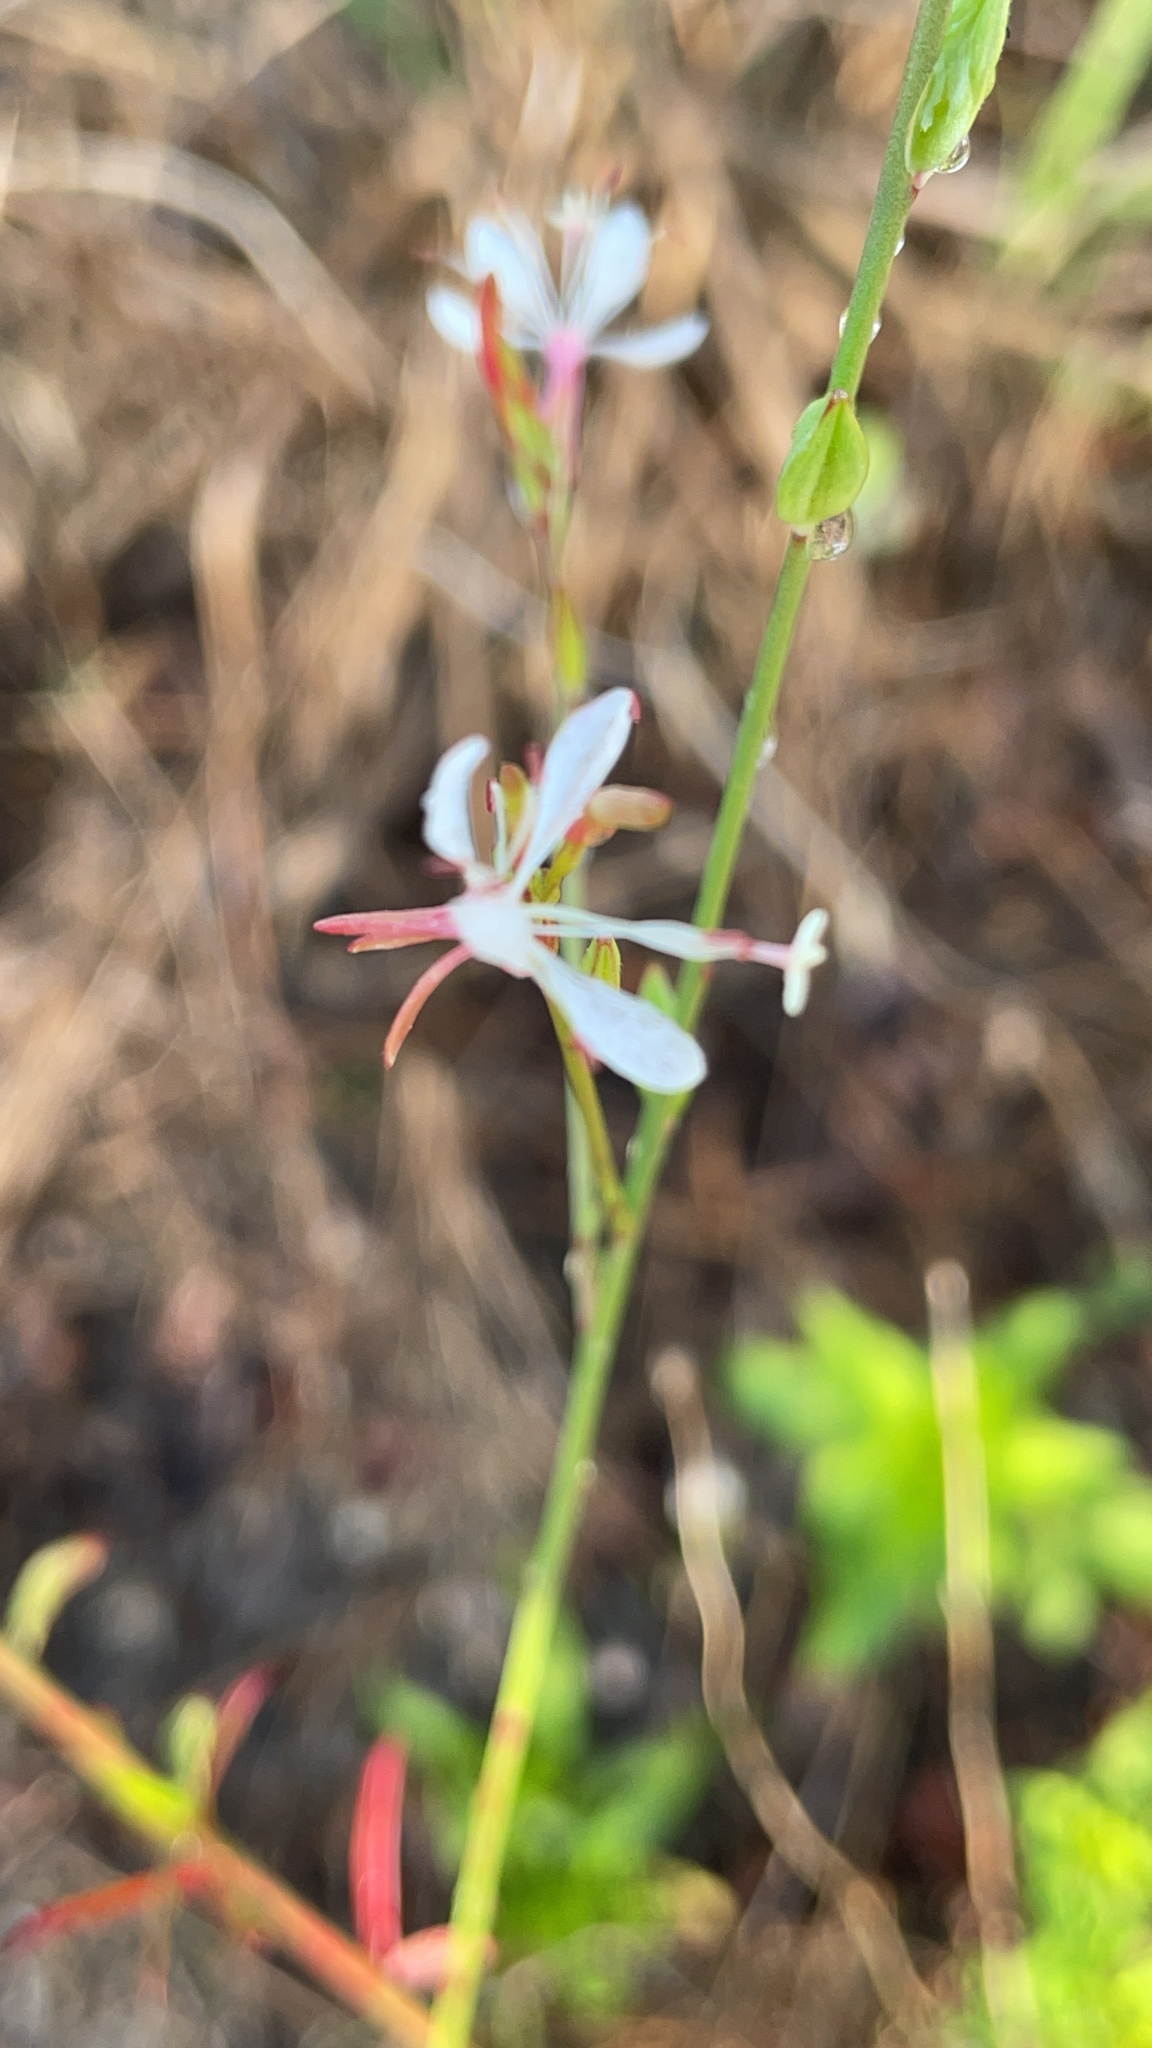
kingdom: Plantae
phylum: Tracheophyta
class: Magnoliopsida
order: Myrtales
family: Onagraceae
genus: Oenothera
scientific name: Oenothera simulans
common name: Southern beeblossom
